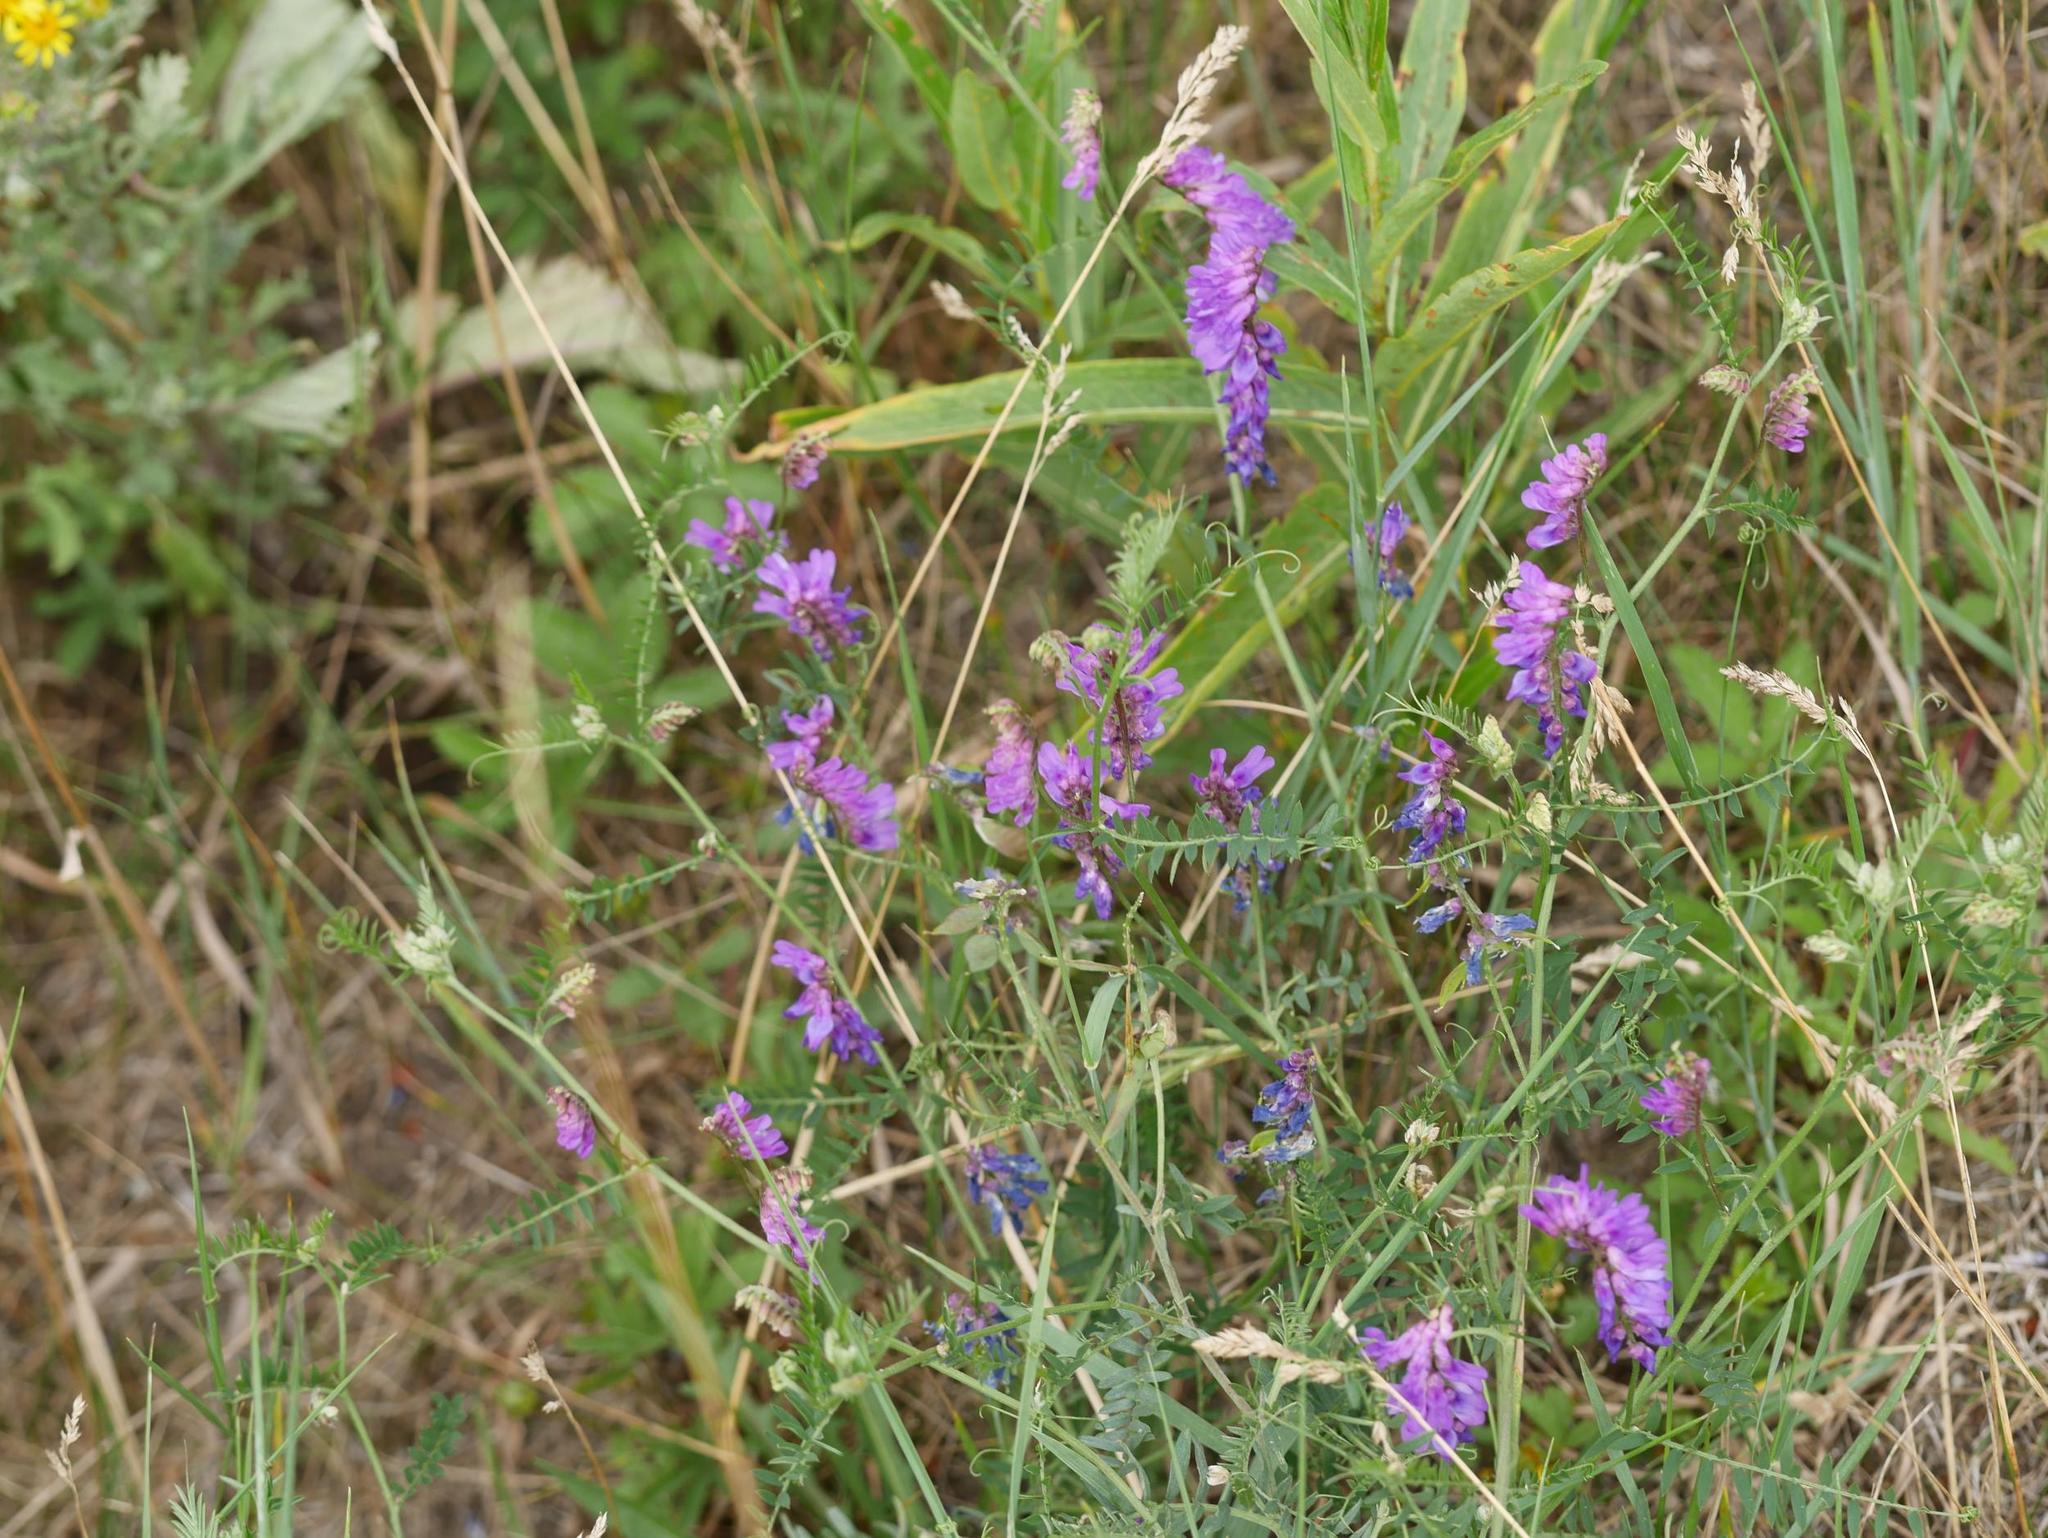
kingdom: Plantae
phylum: Tracheophyta
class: Magnoliopsida
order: Fabales
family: Fabaceae
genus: Vicia
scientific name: Vicia cracca
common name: Bird vetch
